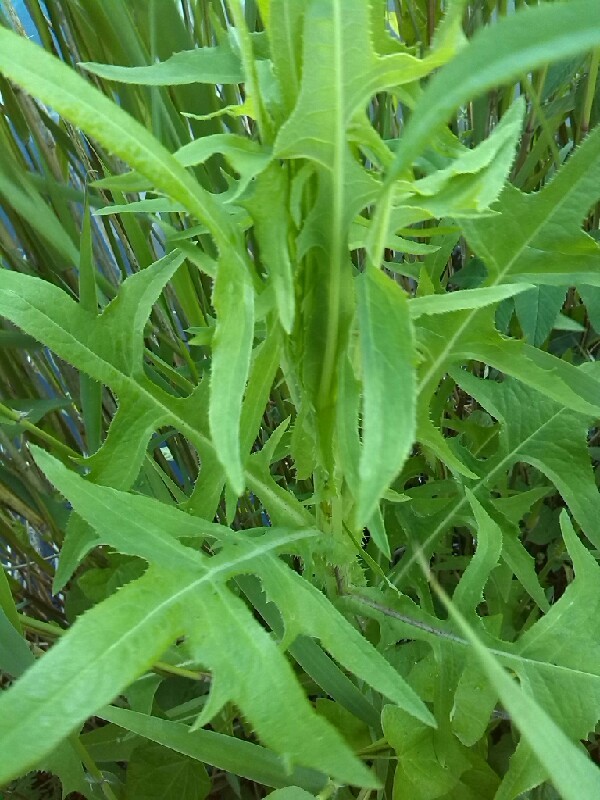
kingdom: Plantae
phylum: Tracheophyta
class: Magnoliopsida
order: Asterales
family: Asteraceae
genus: Sonchus
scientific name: Sonchus palustris
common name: Marsh sow-thistle
